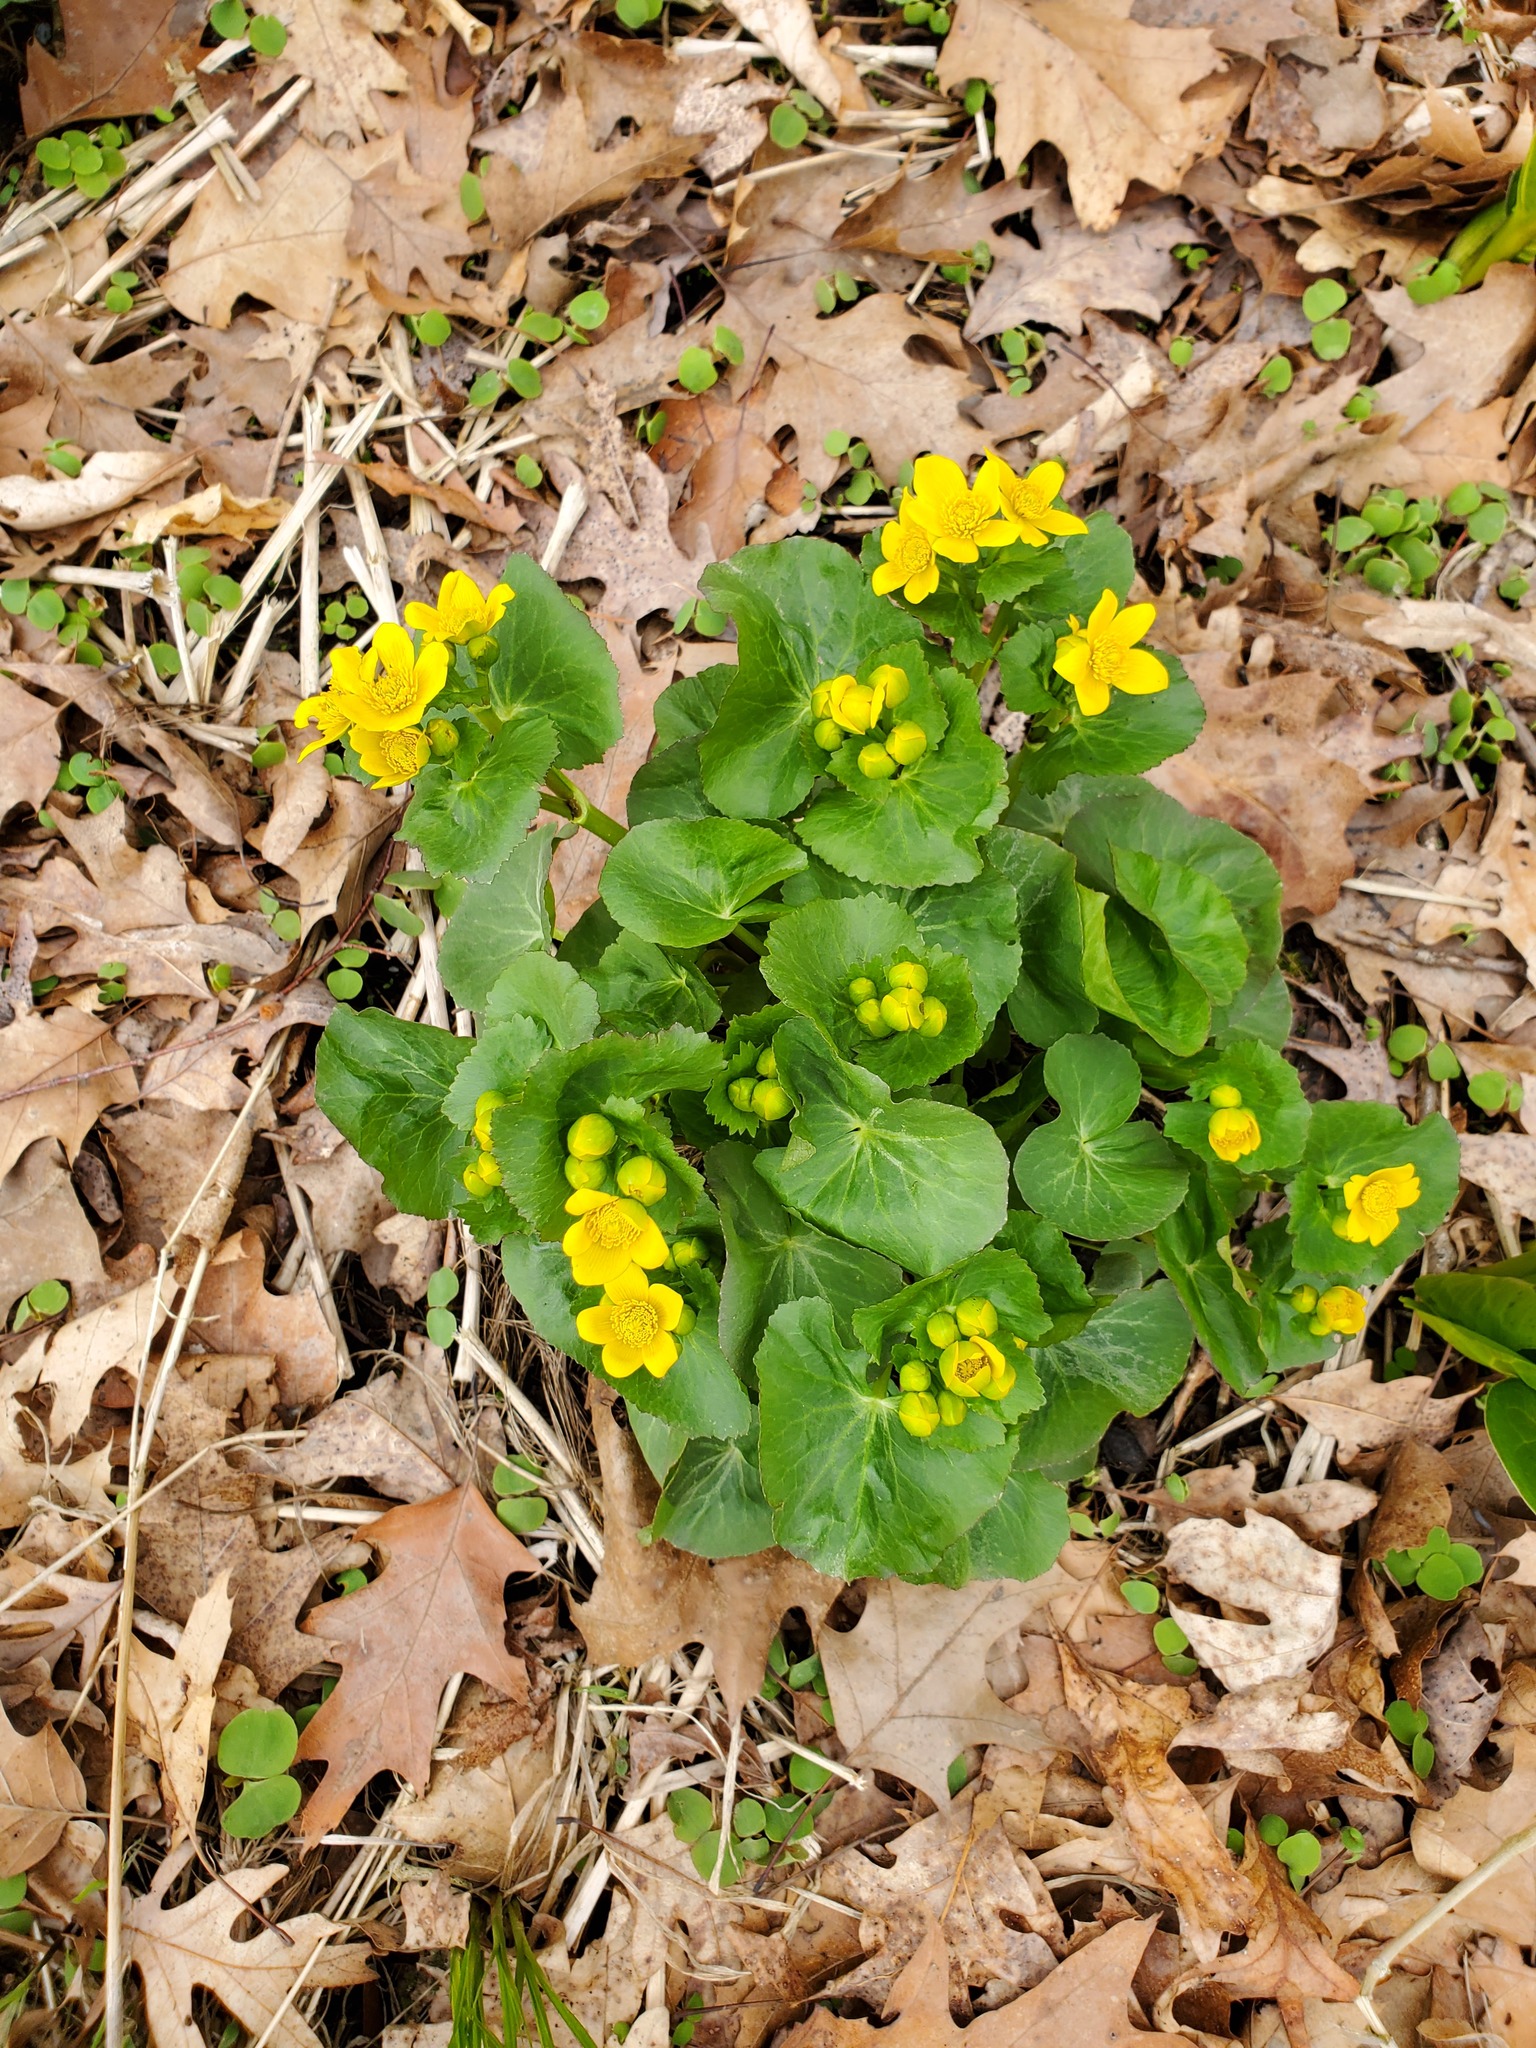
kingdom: Plantae
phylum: Tracheophyta
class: Magnoliopsida
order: Ranunculales
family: Ranunculaceae
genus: Caltha
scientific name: Caltha palustris
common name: Marsh marigold
